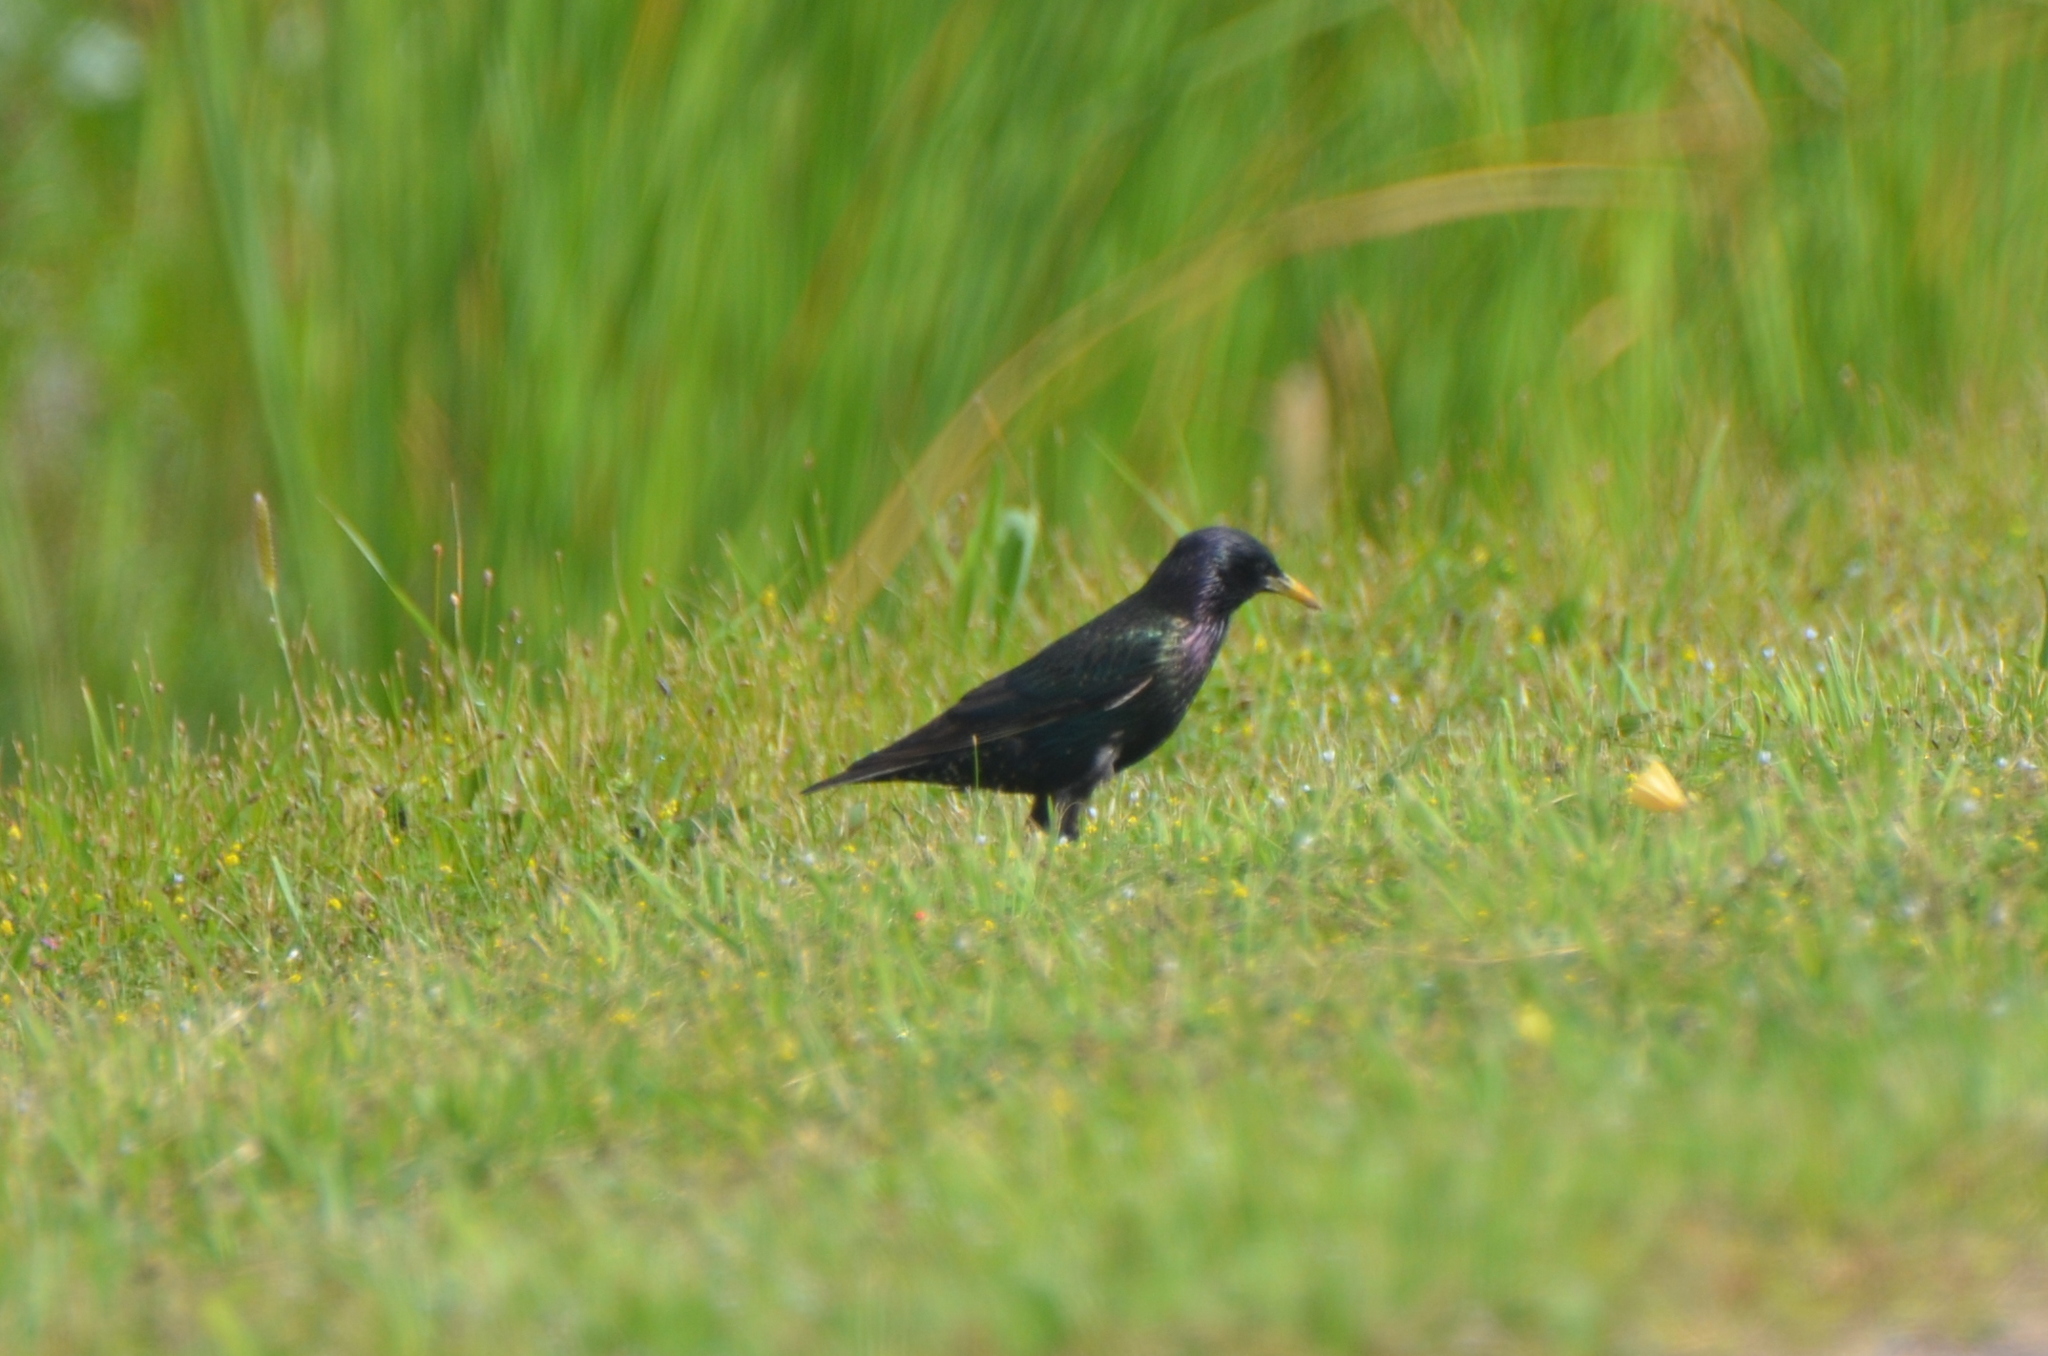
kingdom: Animalia
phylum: Chordata
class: Aves
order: Passeriformes
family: Sturnidae
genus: Sturnus
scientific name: Sturnus vulgaris
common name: Common starling
